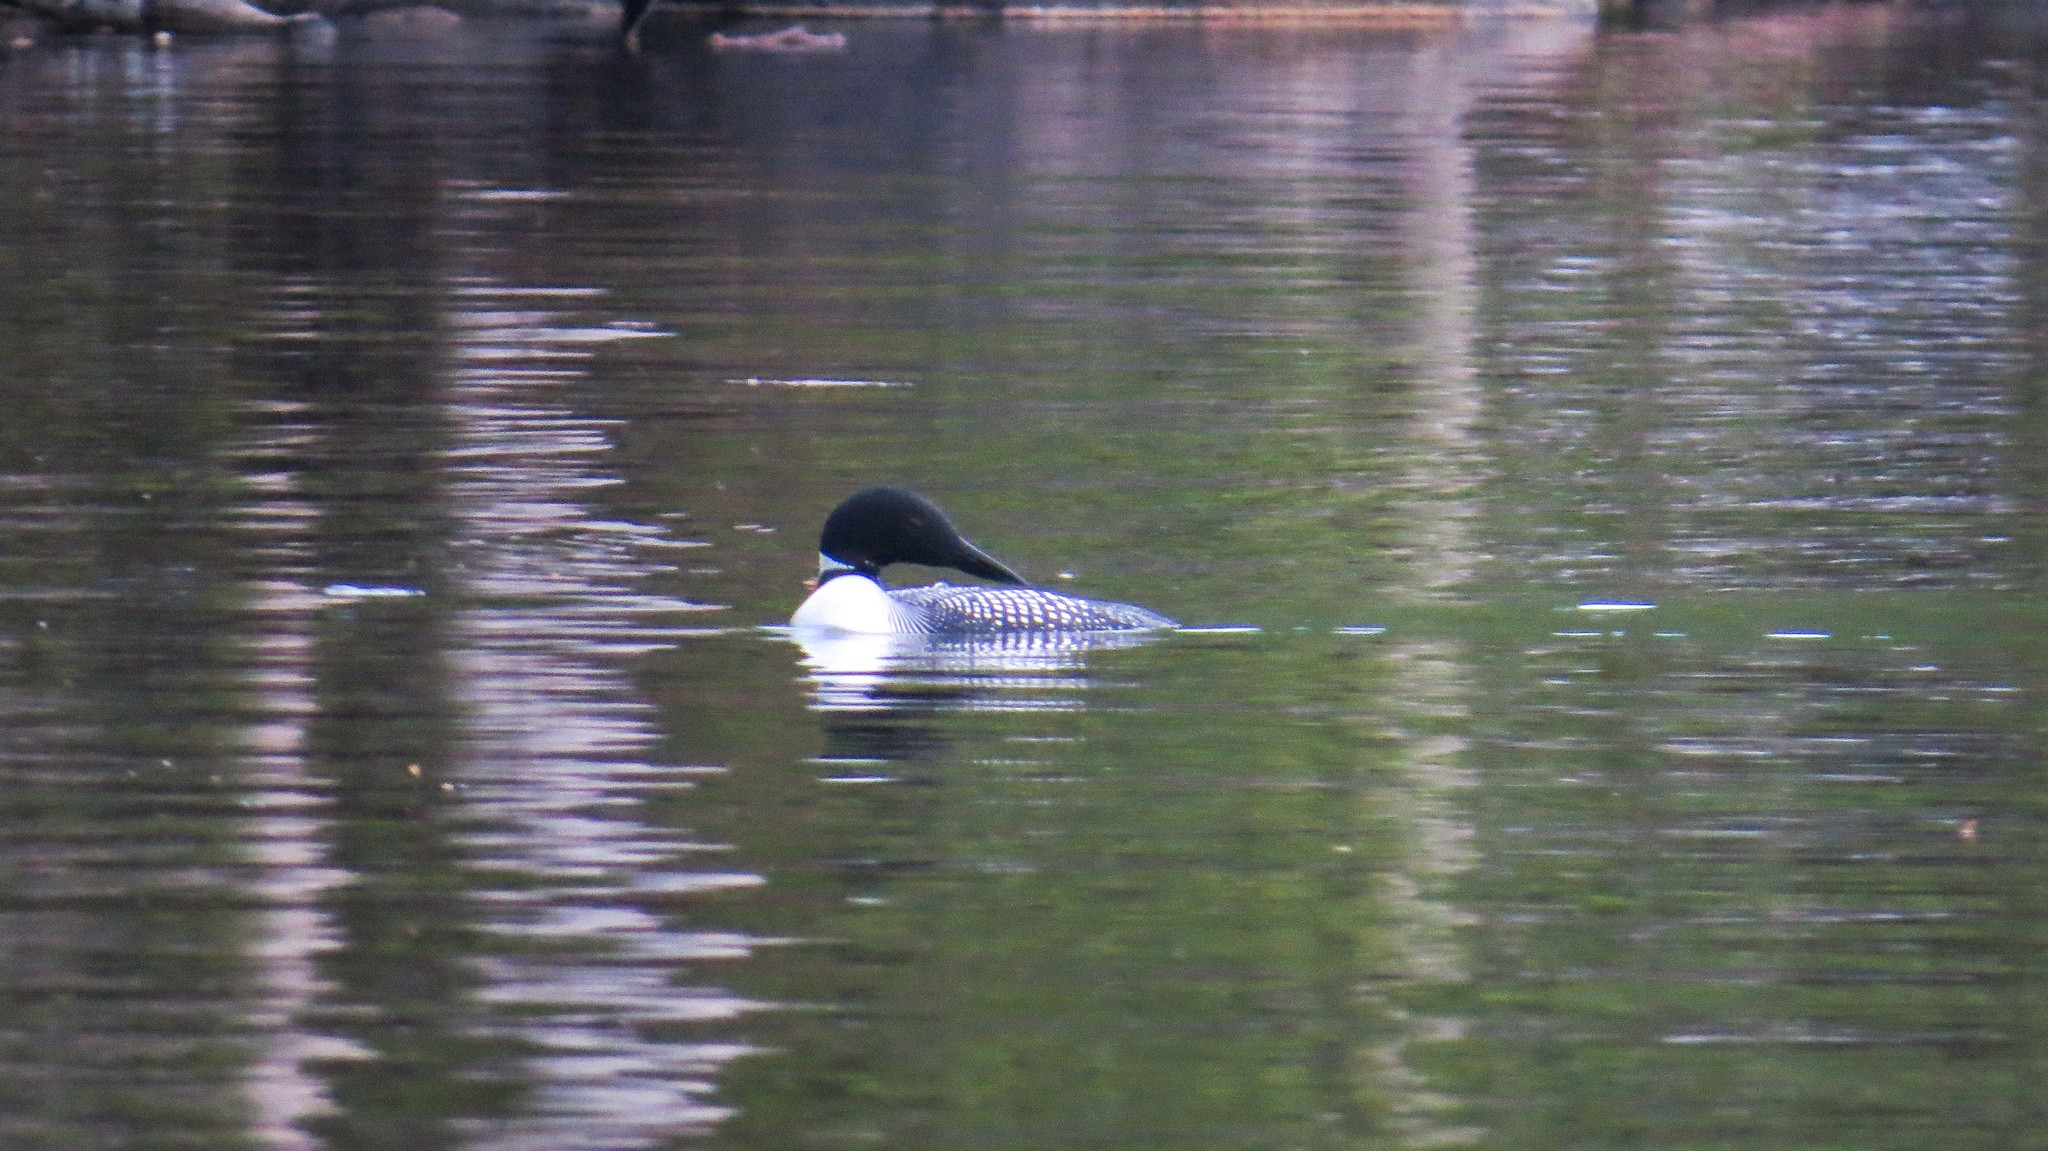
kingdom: Animalia
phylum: Chordata
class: Aves
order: Gaviiformes
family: Gaviidae
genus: Gavia
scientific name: Gavia immer
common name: Common loon
